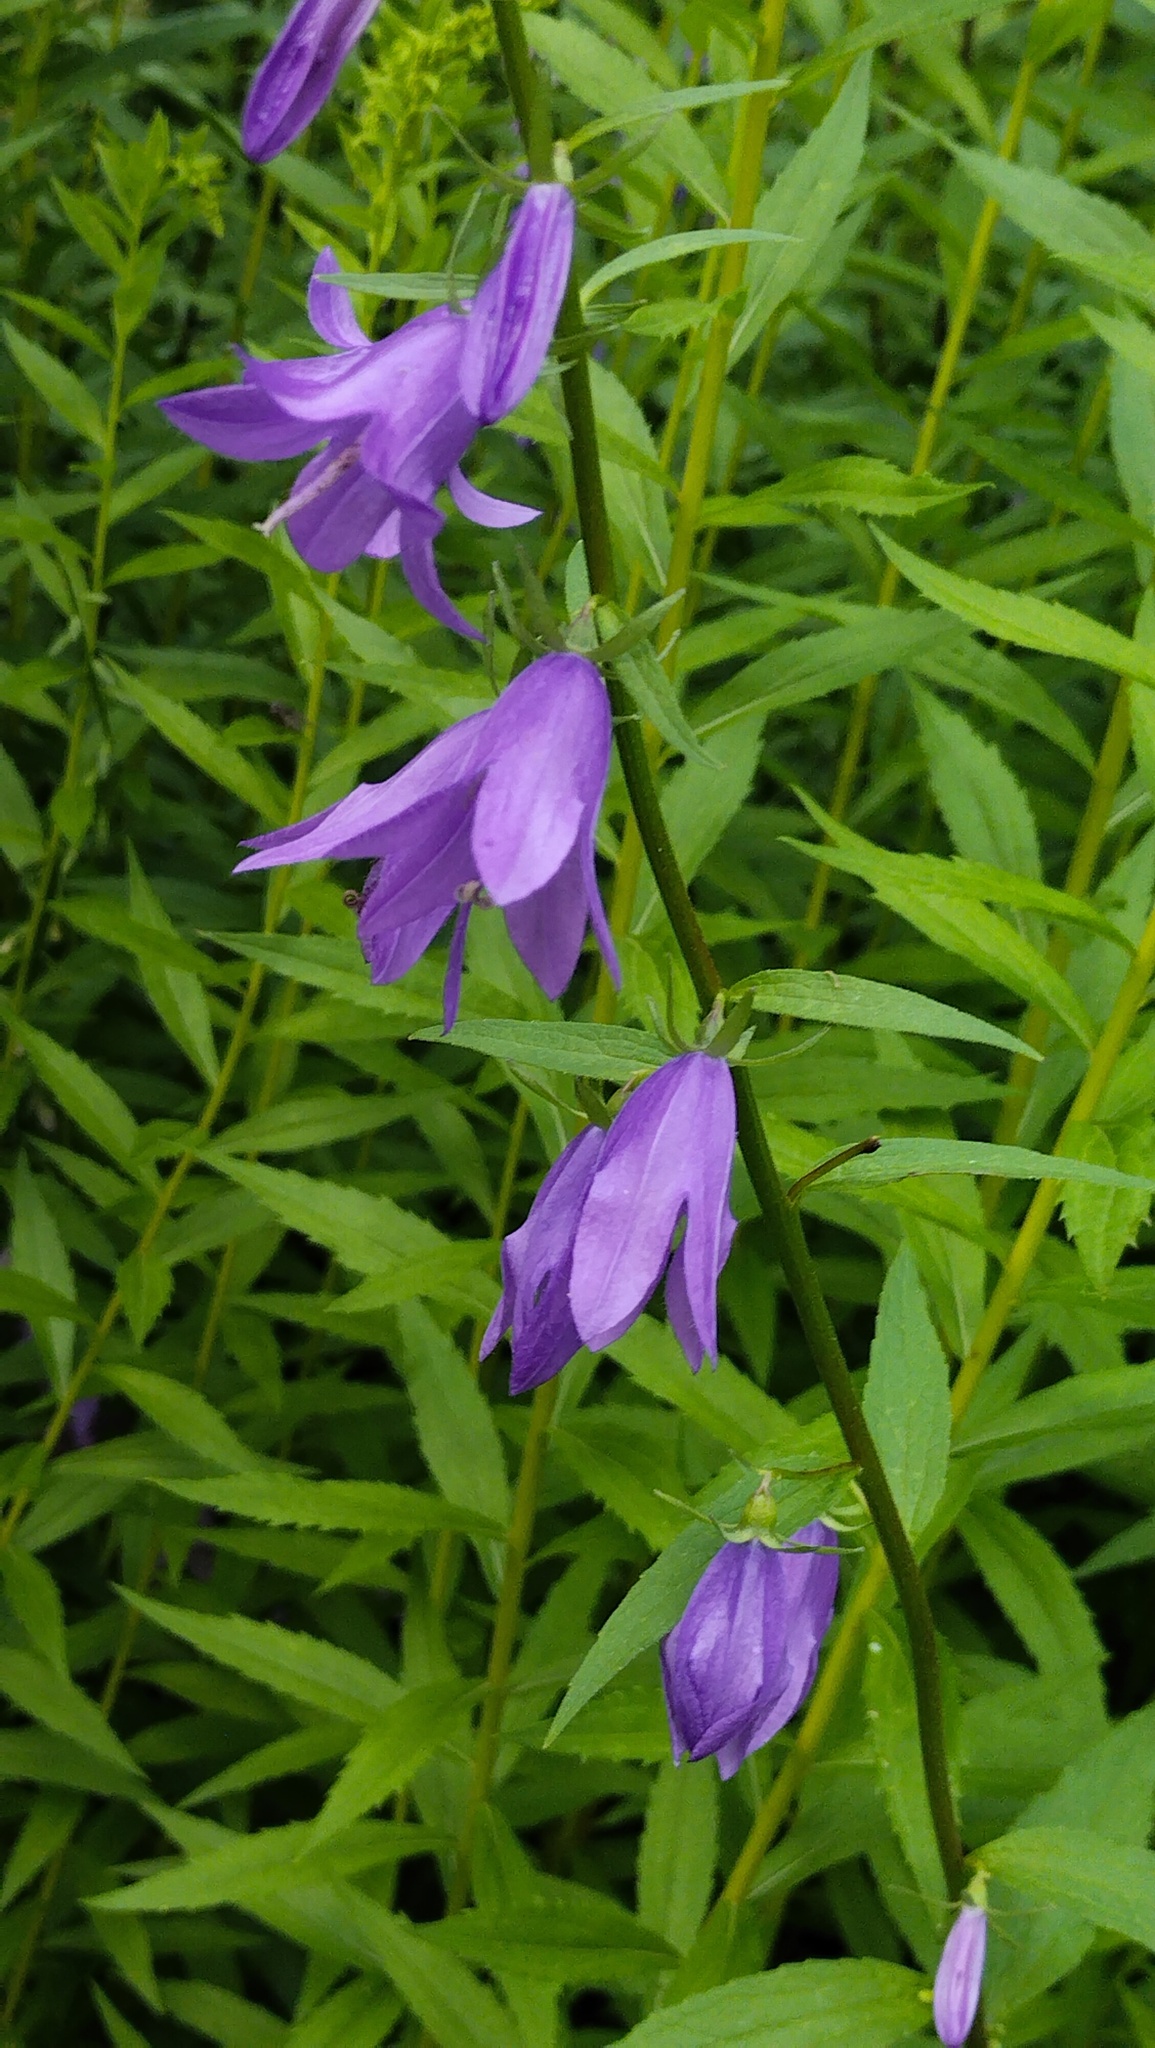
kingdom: Plantae
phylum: Tracheophyta
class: Magnoliopsida
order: Asterales
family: Campanulaceae
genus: Campanula
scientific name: Campanula rapunculoides
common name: Creeping bellflower
